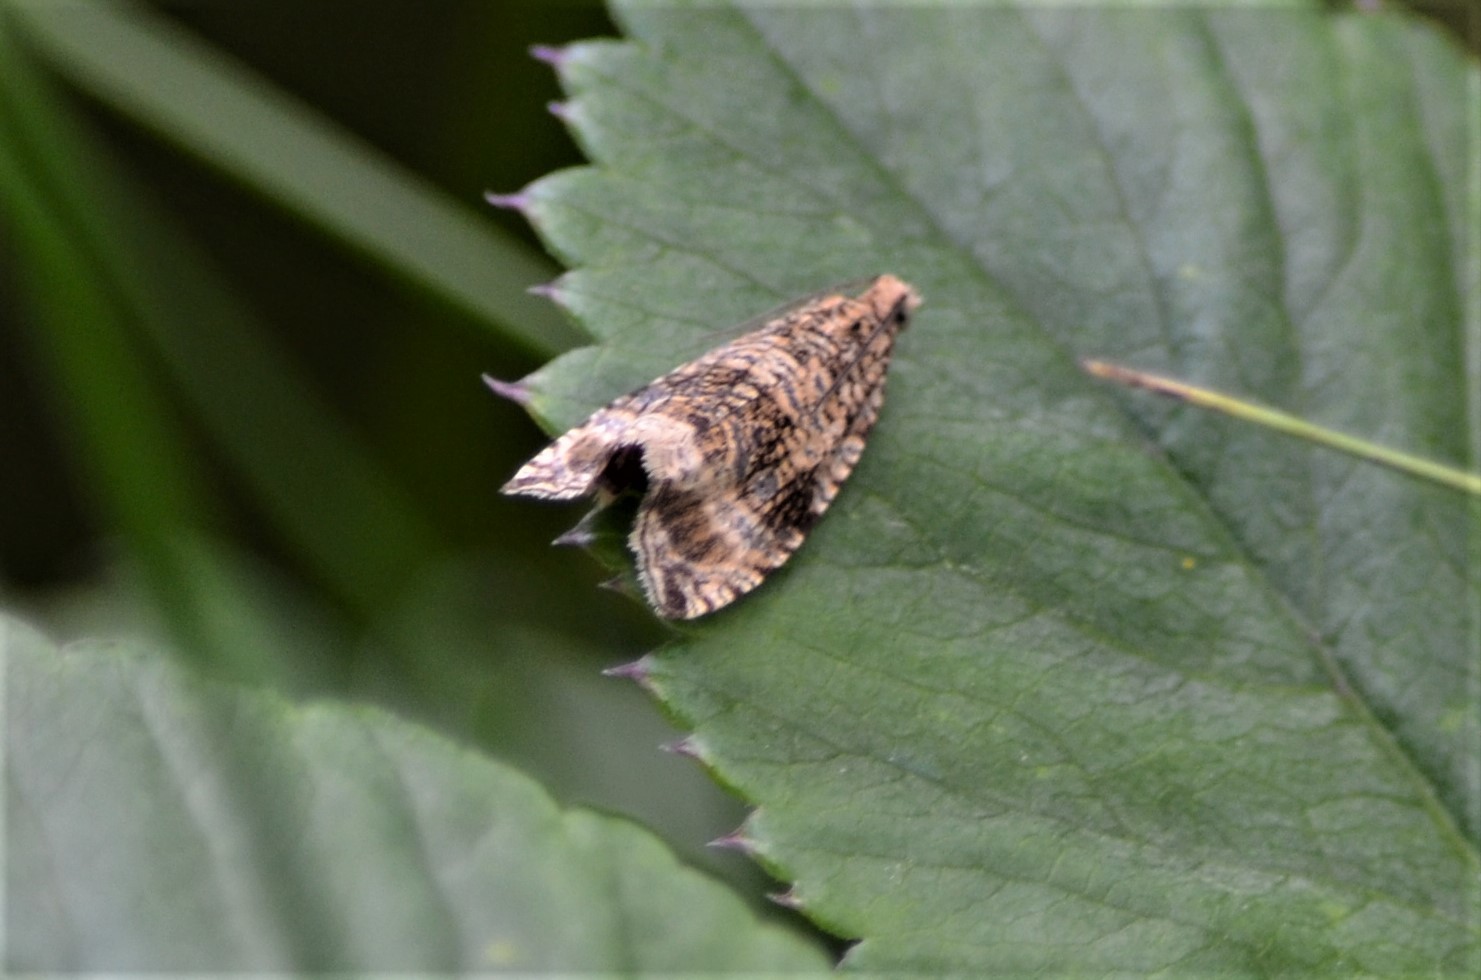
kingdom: Animalia
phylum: Arthropoda
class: Insecta
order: Lepidoptera
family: Tortricidae
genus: Syricoris
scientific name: Syricoris lacunana
